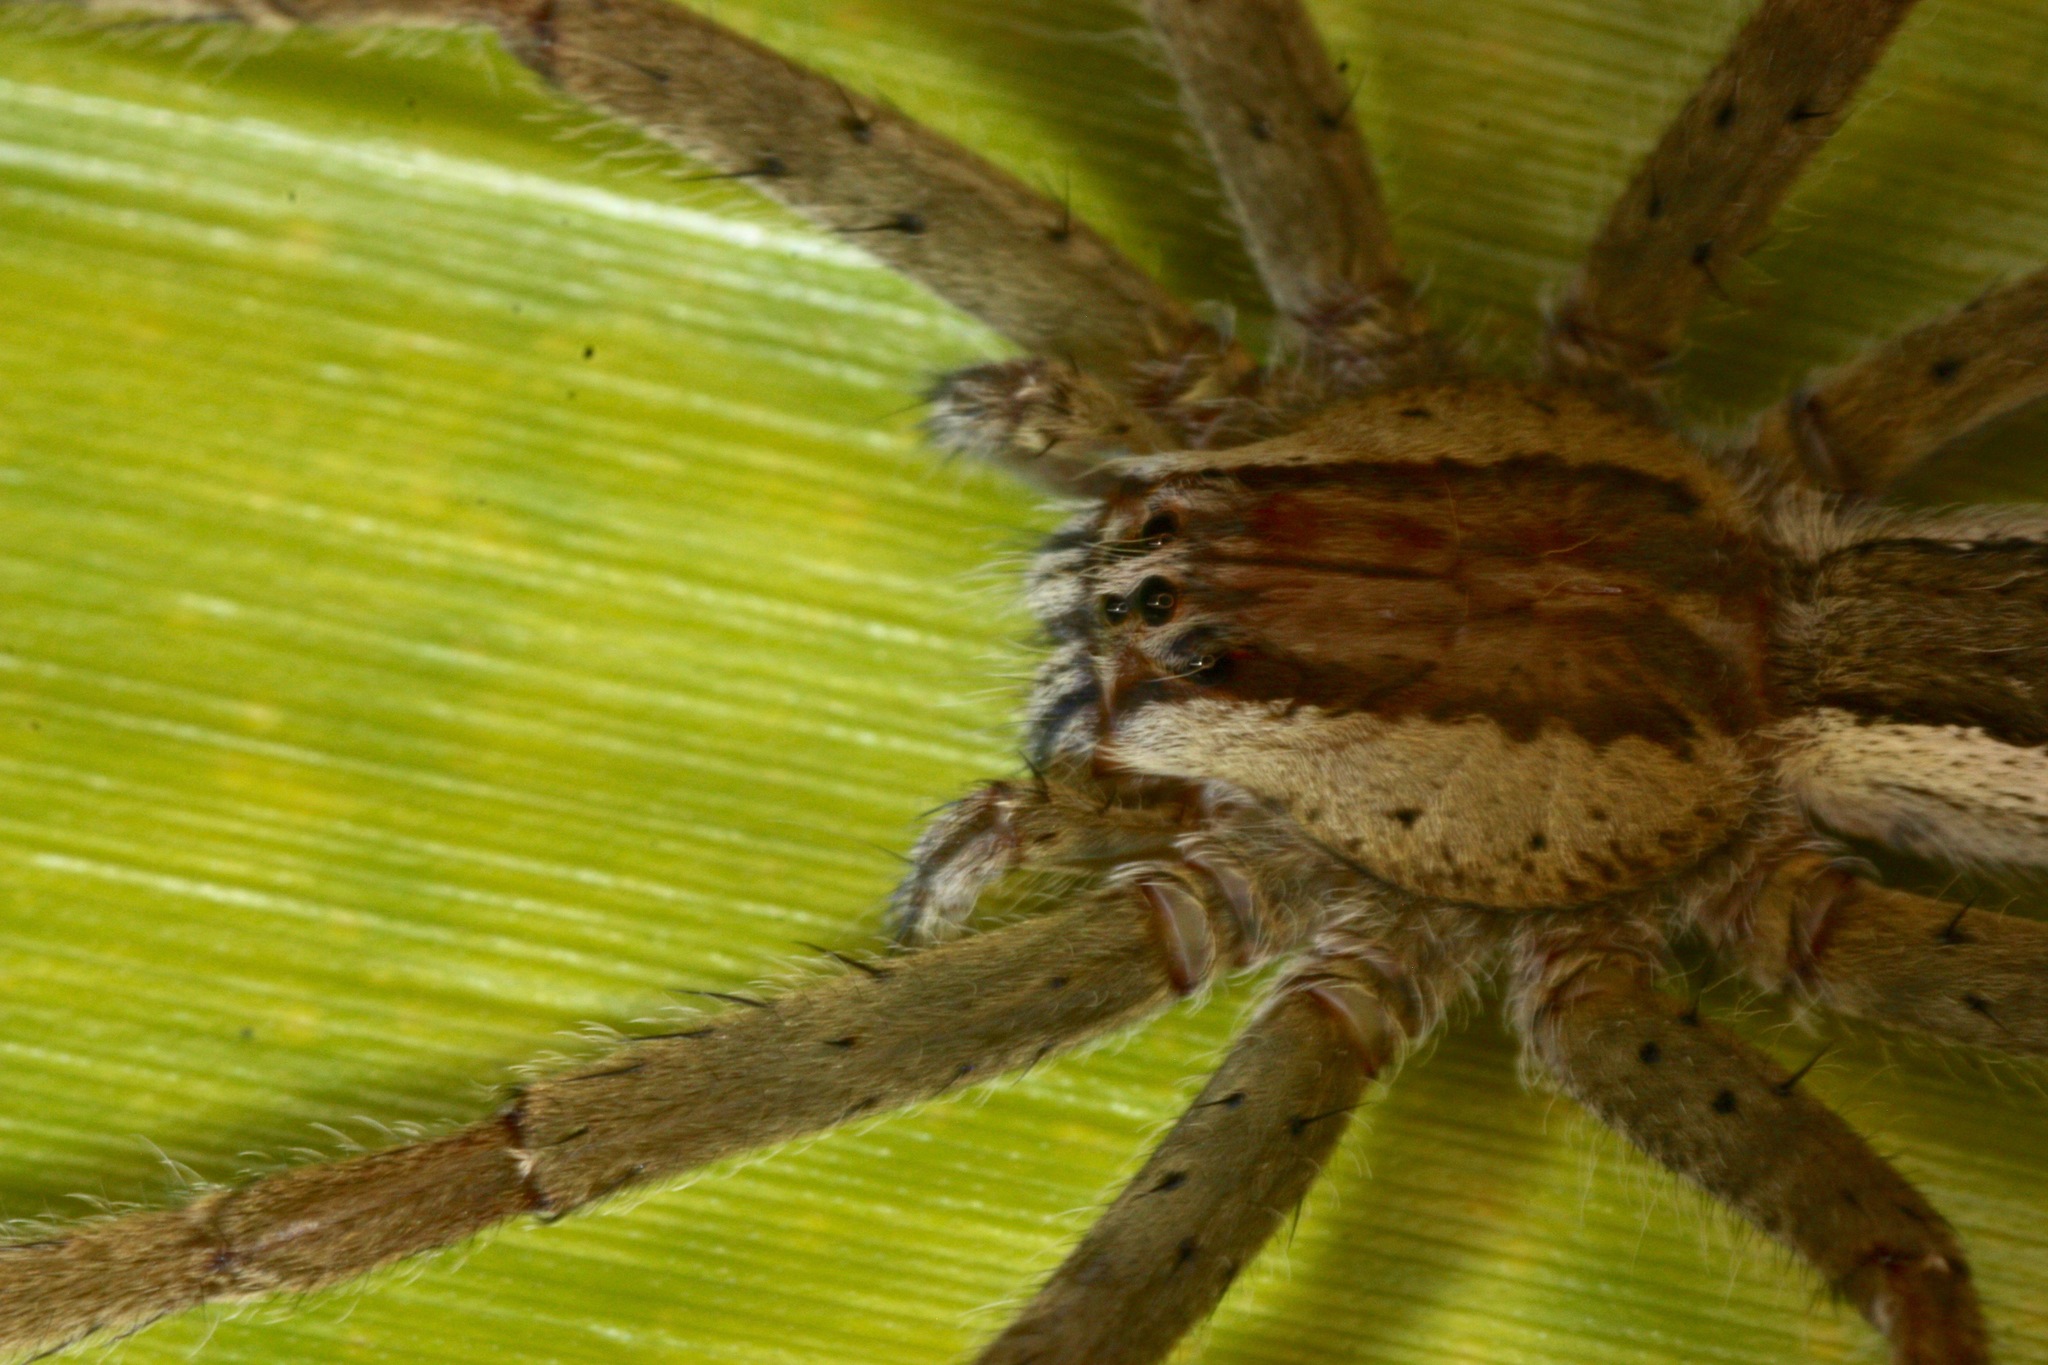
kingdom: Animalia
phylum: Arthropoda
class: Arachnida
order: Araneae
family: Trechaleidae
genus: Cupiennius
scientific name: Cupiennius getazi
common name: Wandering spiders
